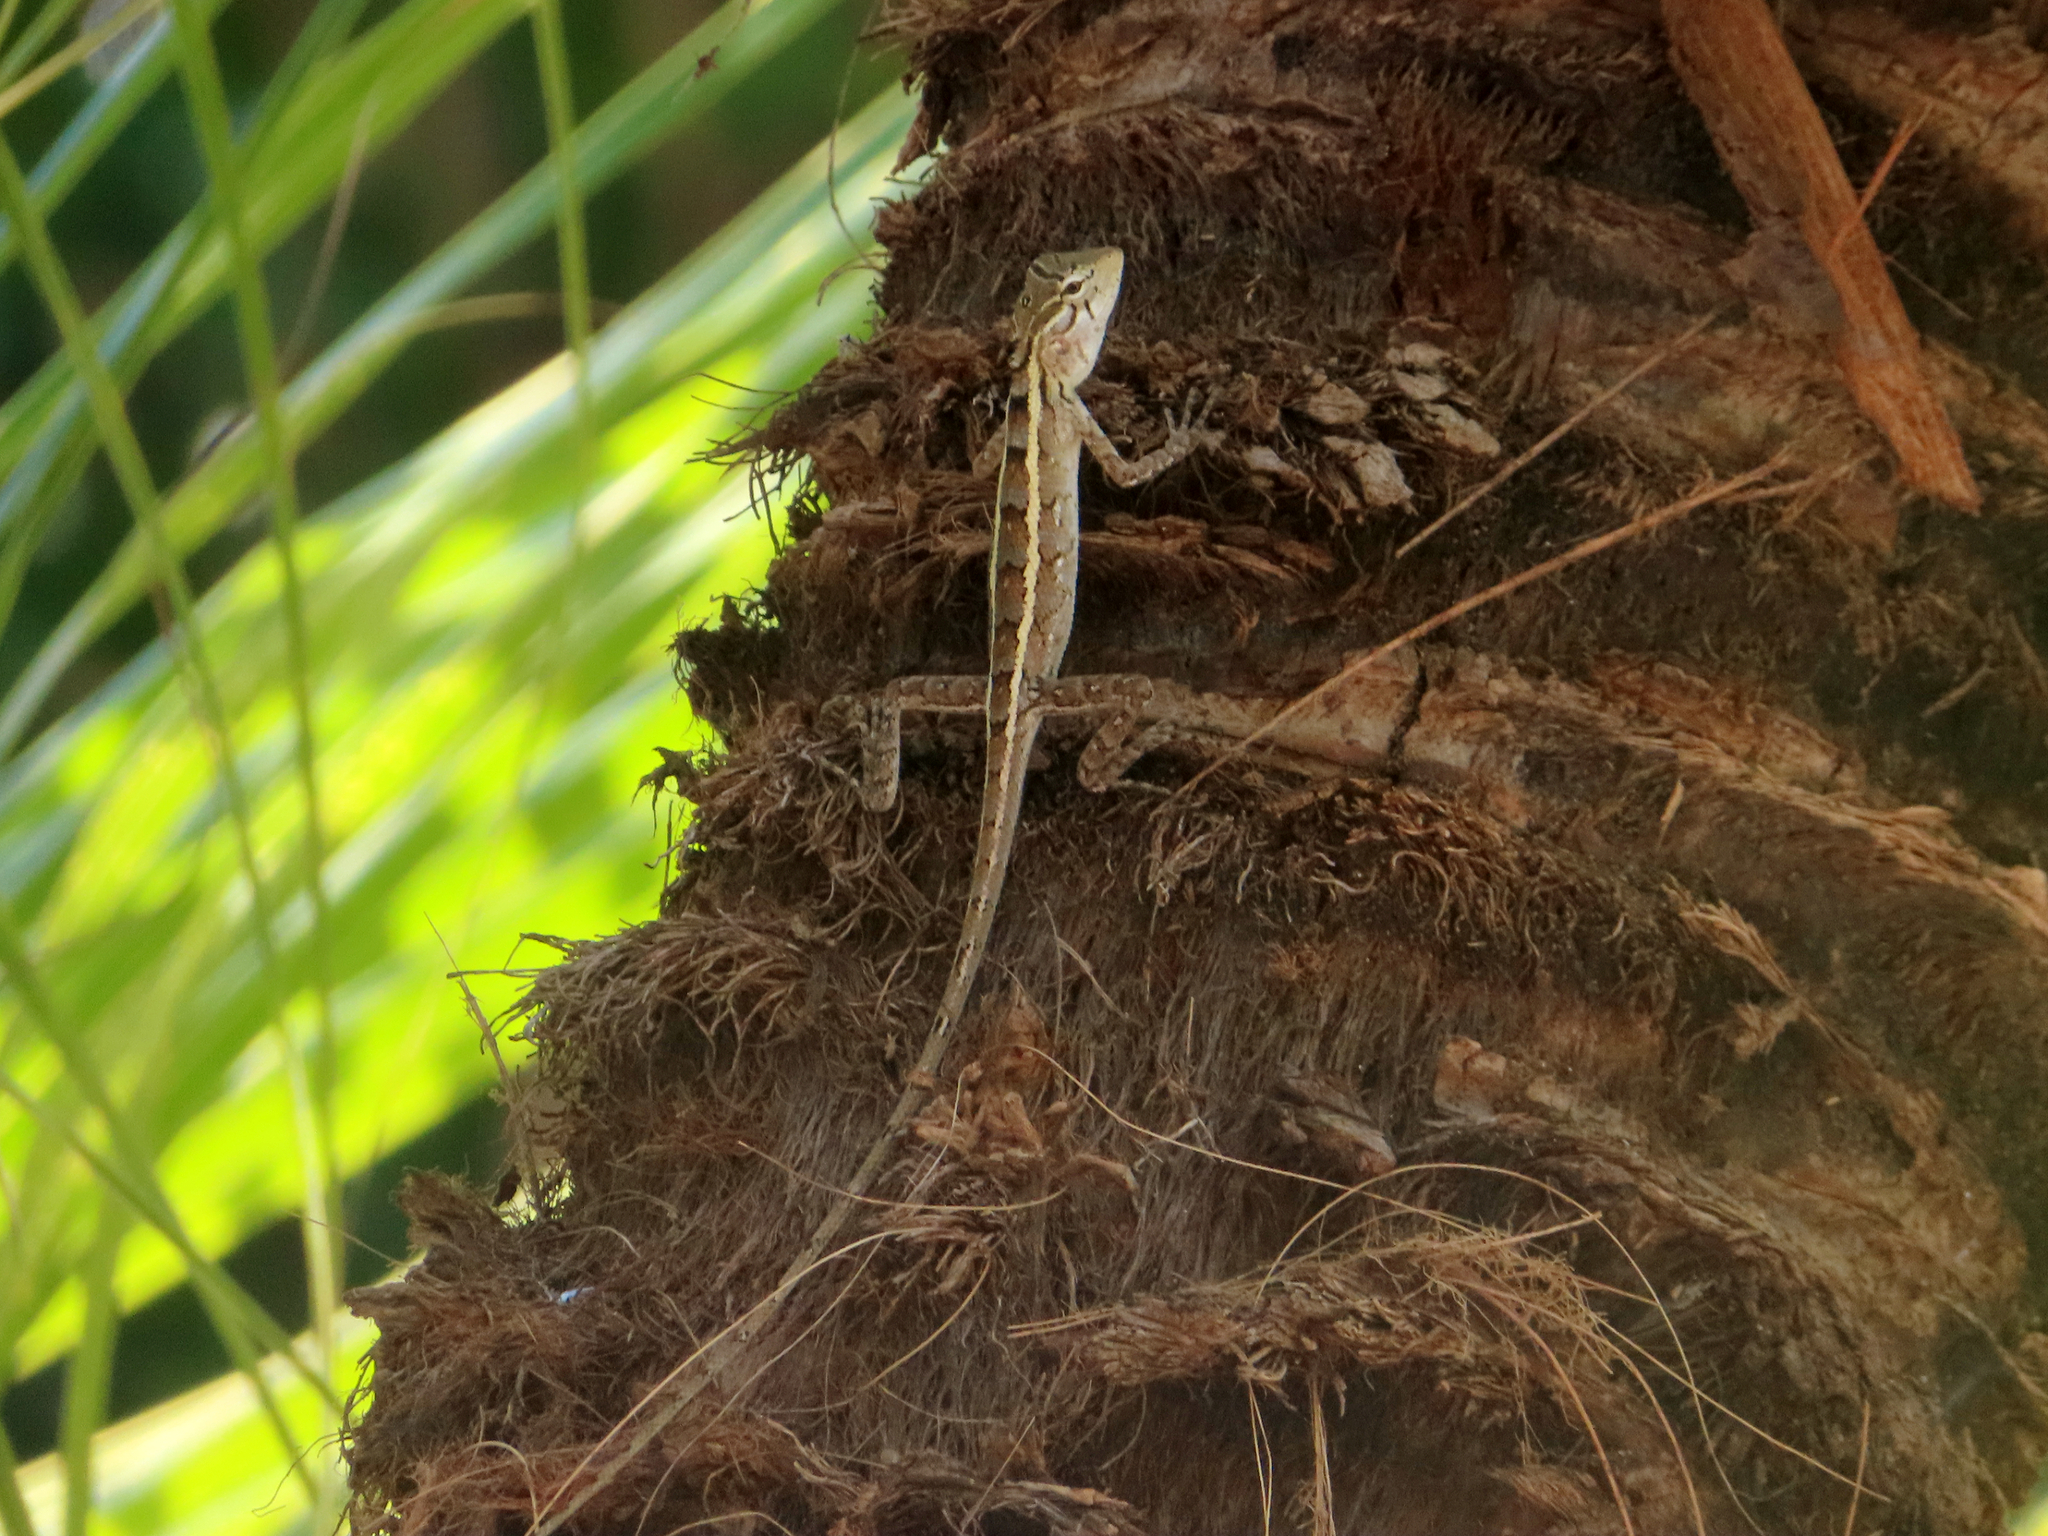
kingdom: Animalia
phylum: Chordata
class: Squamata
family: Agamidae
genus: Calotes
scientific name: Calotes versicolor
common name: Oriental garden lizard
